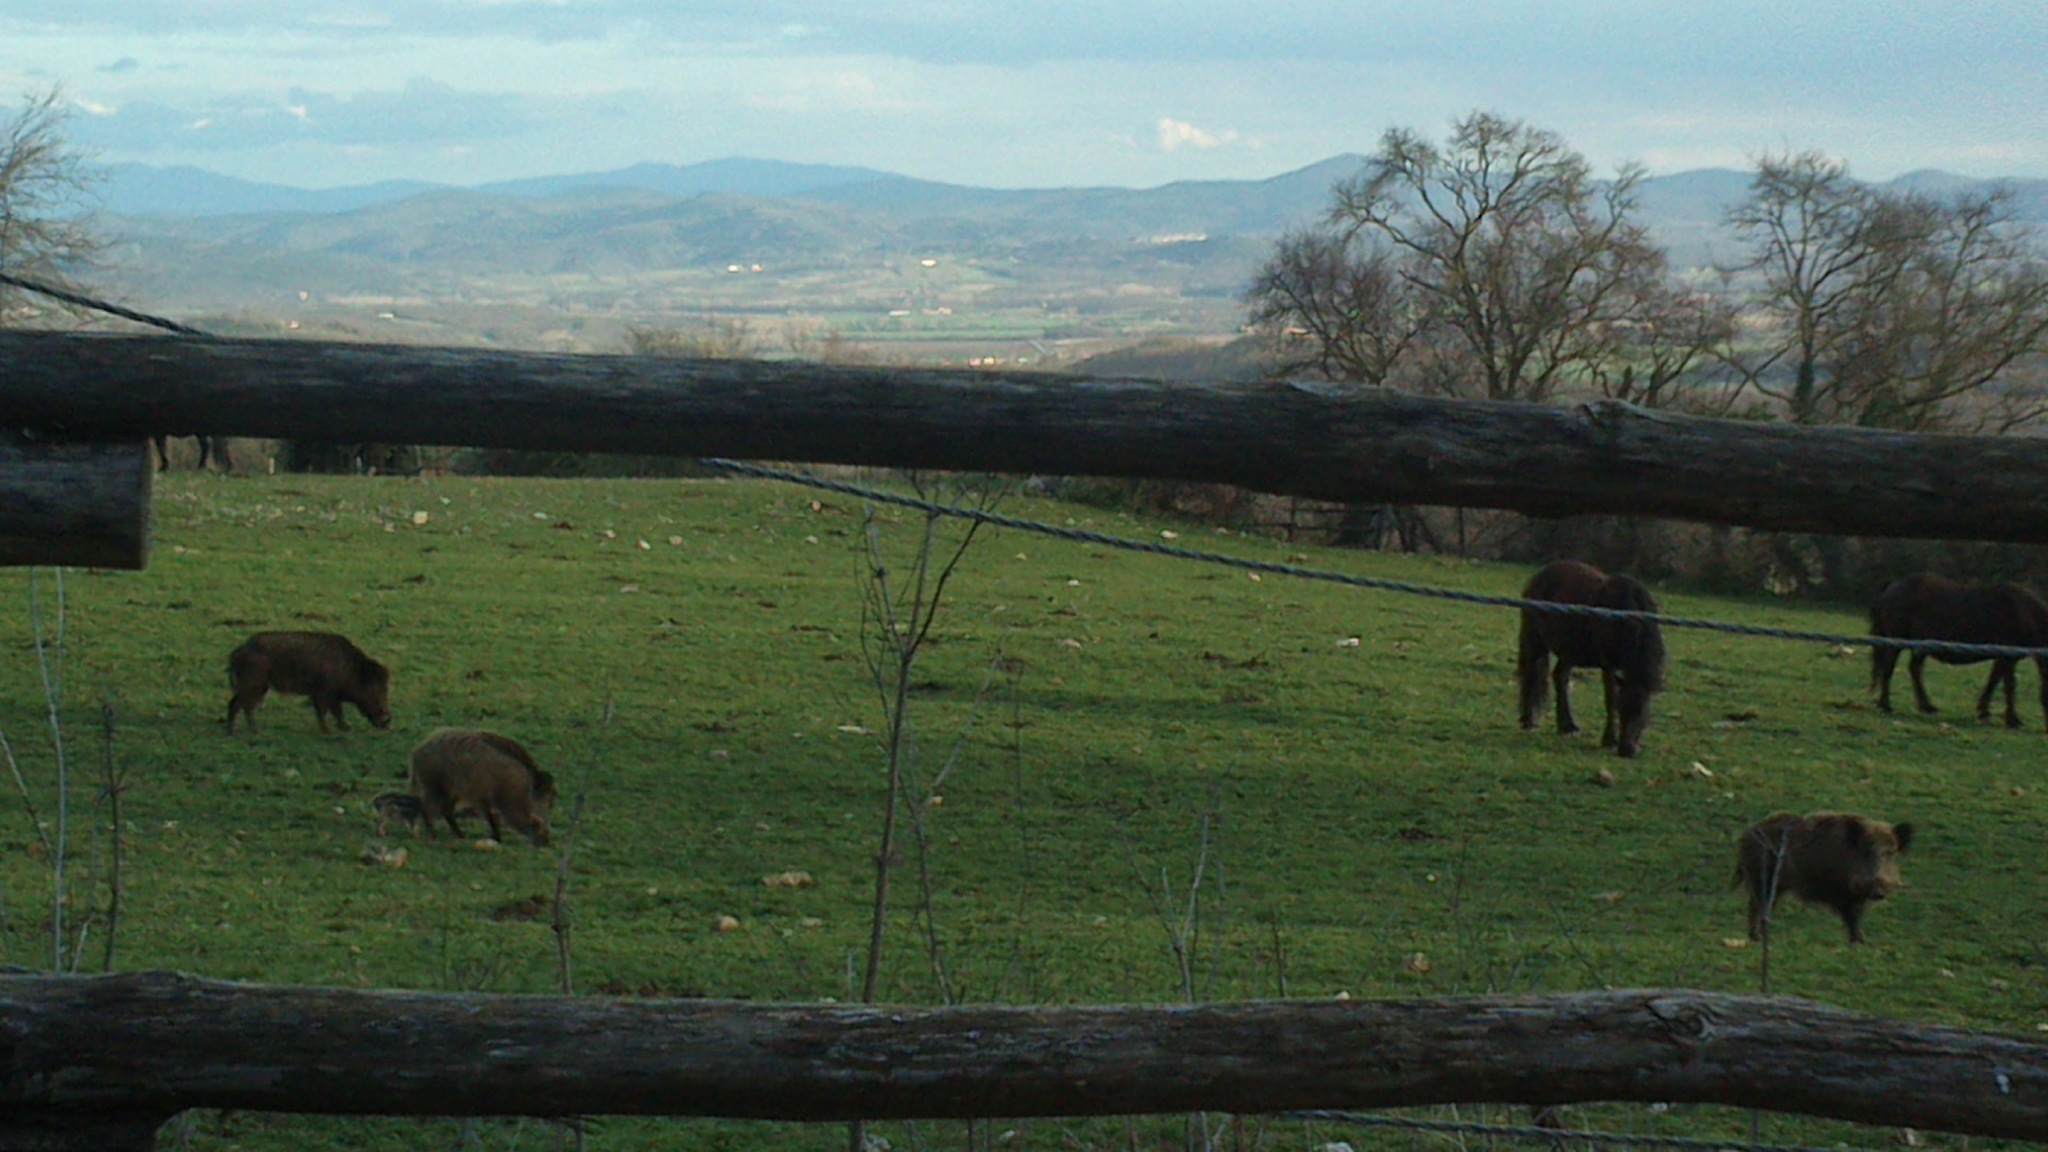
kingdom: Animalia
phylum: Chordata
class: Mammalia
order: Artiodactyla
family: Suidae
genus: Sus
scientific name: Sus scrofa
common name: Wild boar
